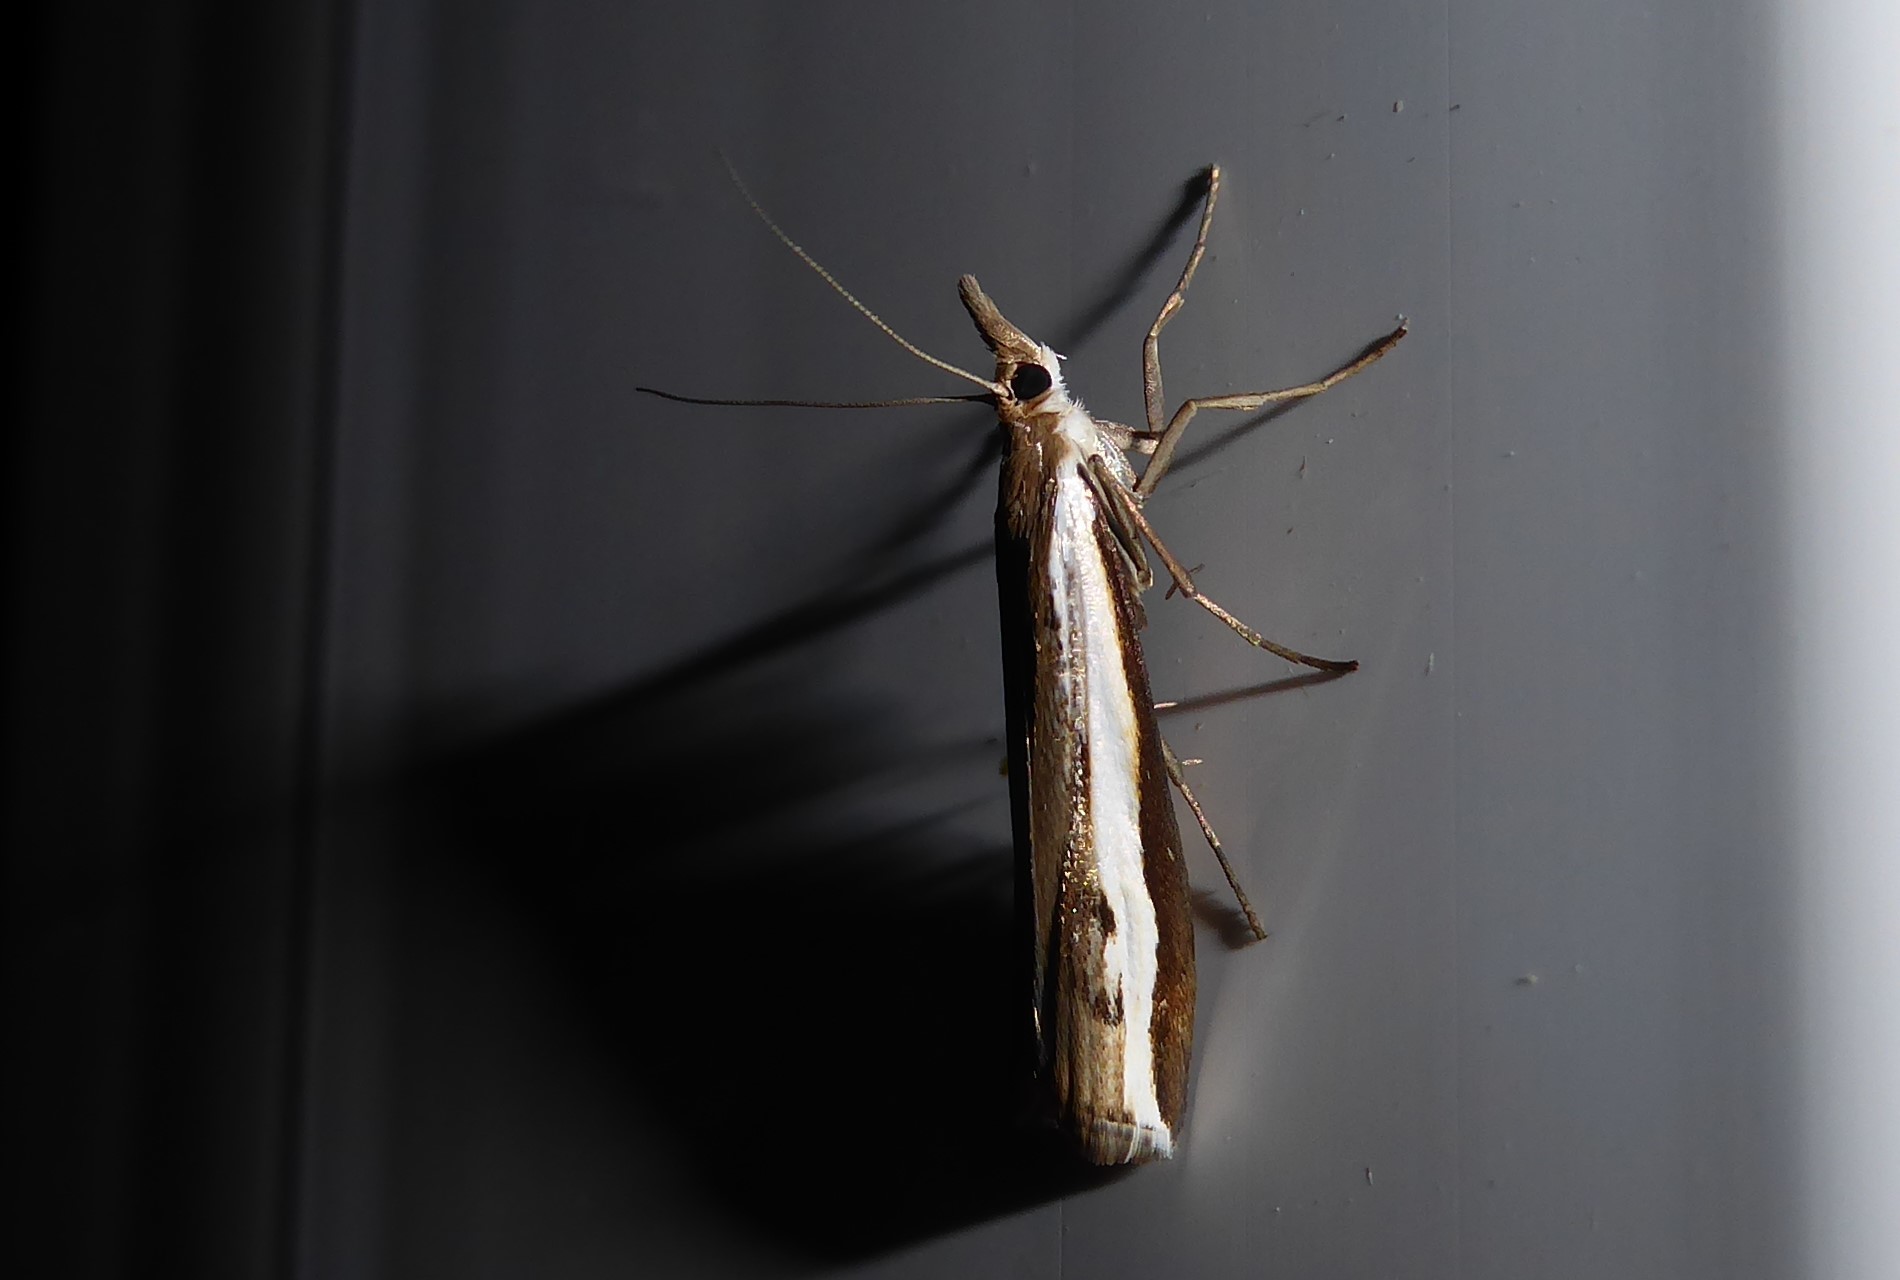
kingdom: Animalia
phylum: Arthropoda
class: Insecta
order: Lepidoptera
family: Crambidae
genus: Orocrambus
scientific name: Orocrambus flexuosellus
